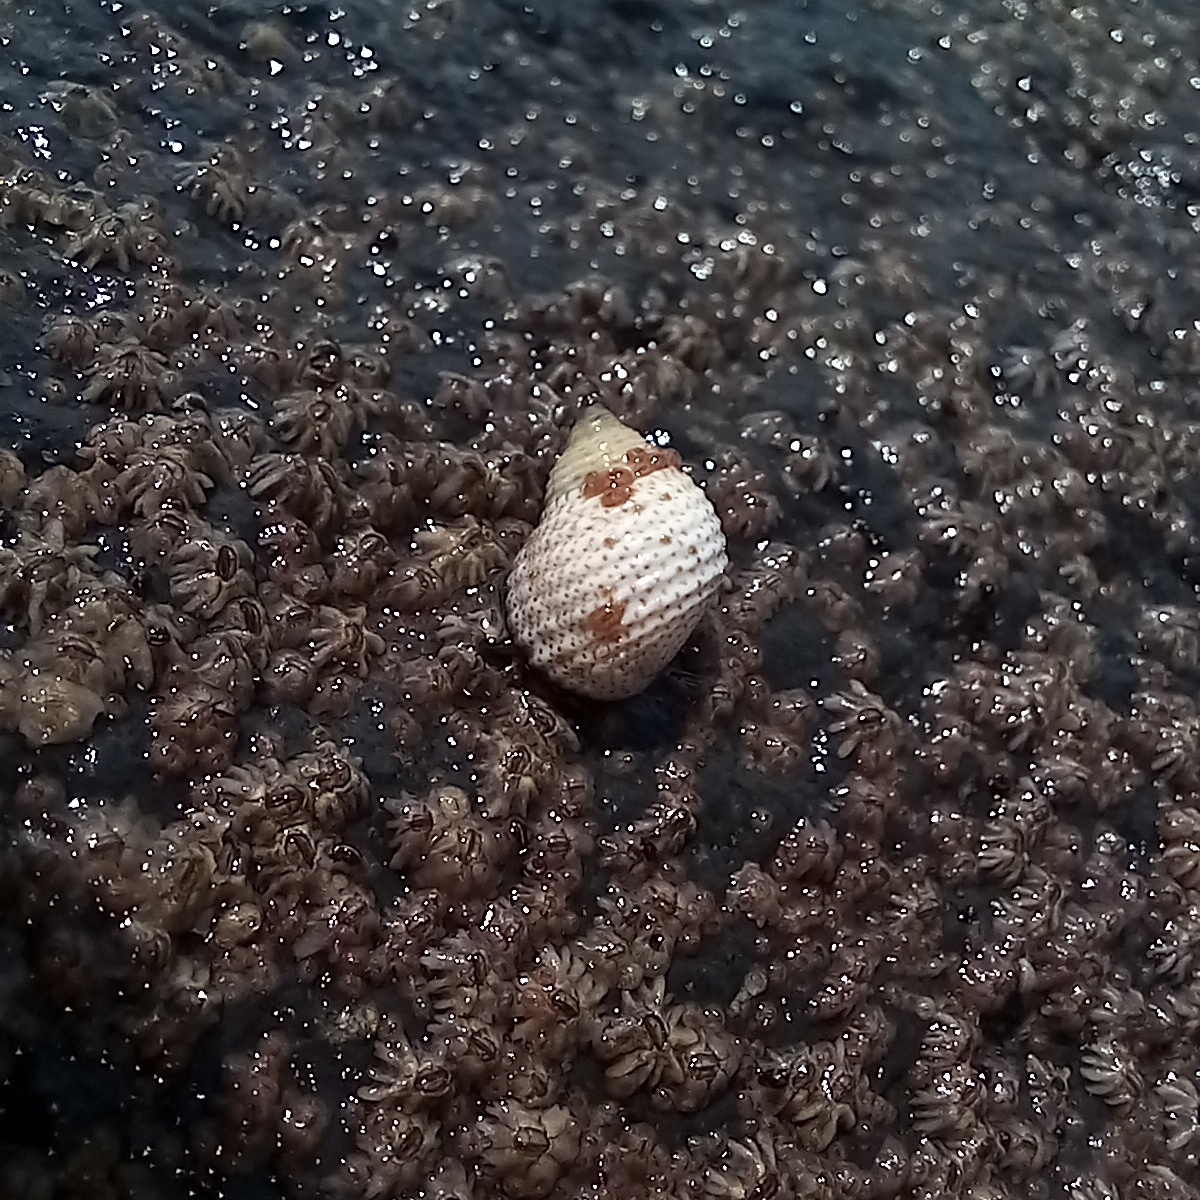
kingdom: Animalia
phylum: Mollusca
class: Gastropoda
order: Littorinimorpha
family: Littorinidae
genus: Echinolittorina
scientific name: Echinolittorina modesta
